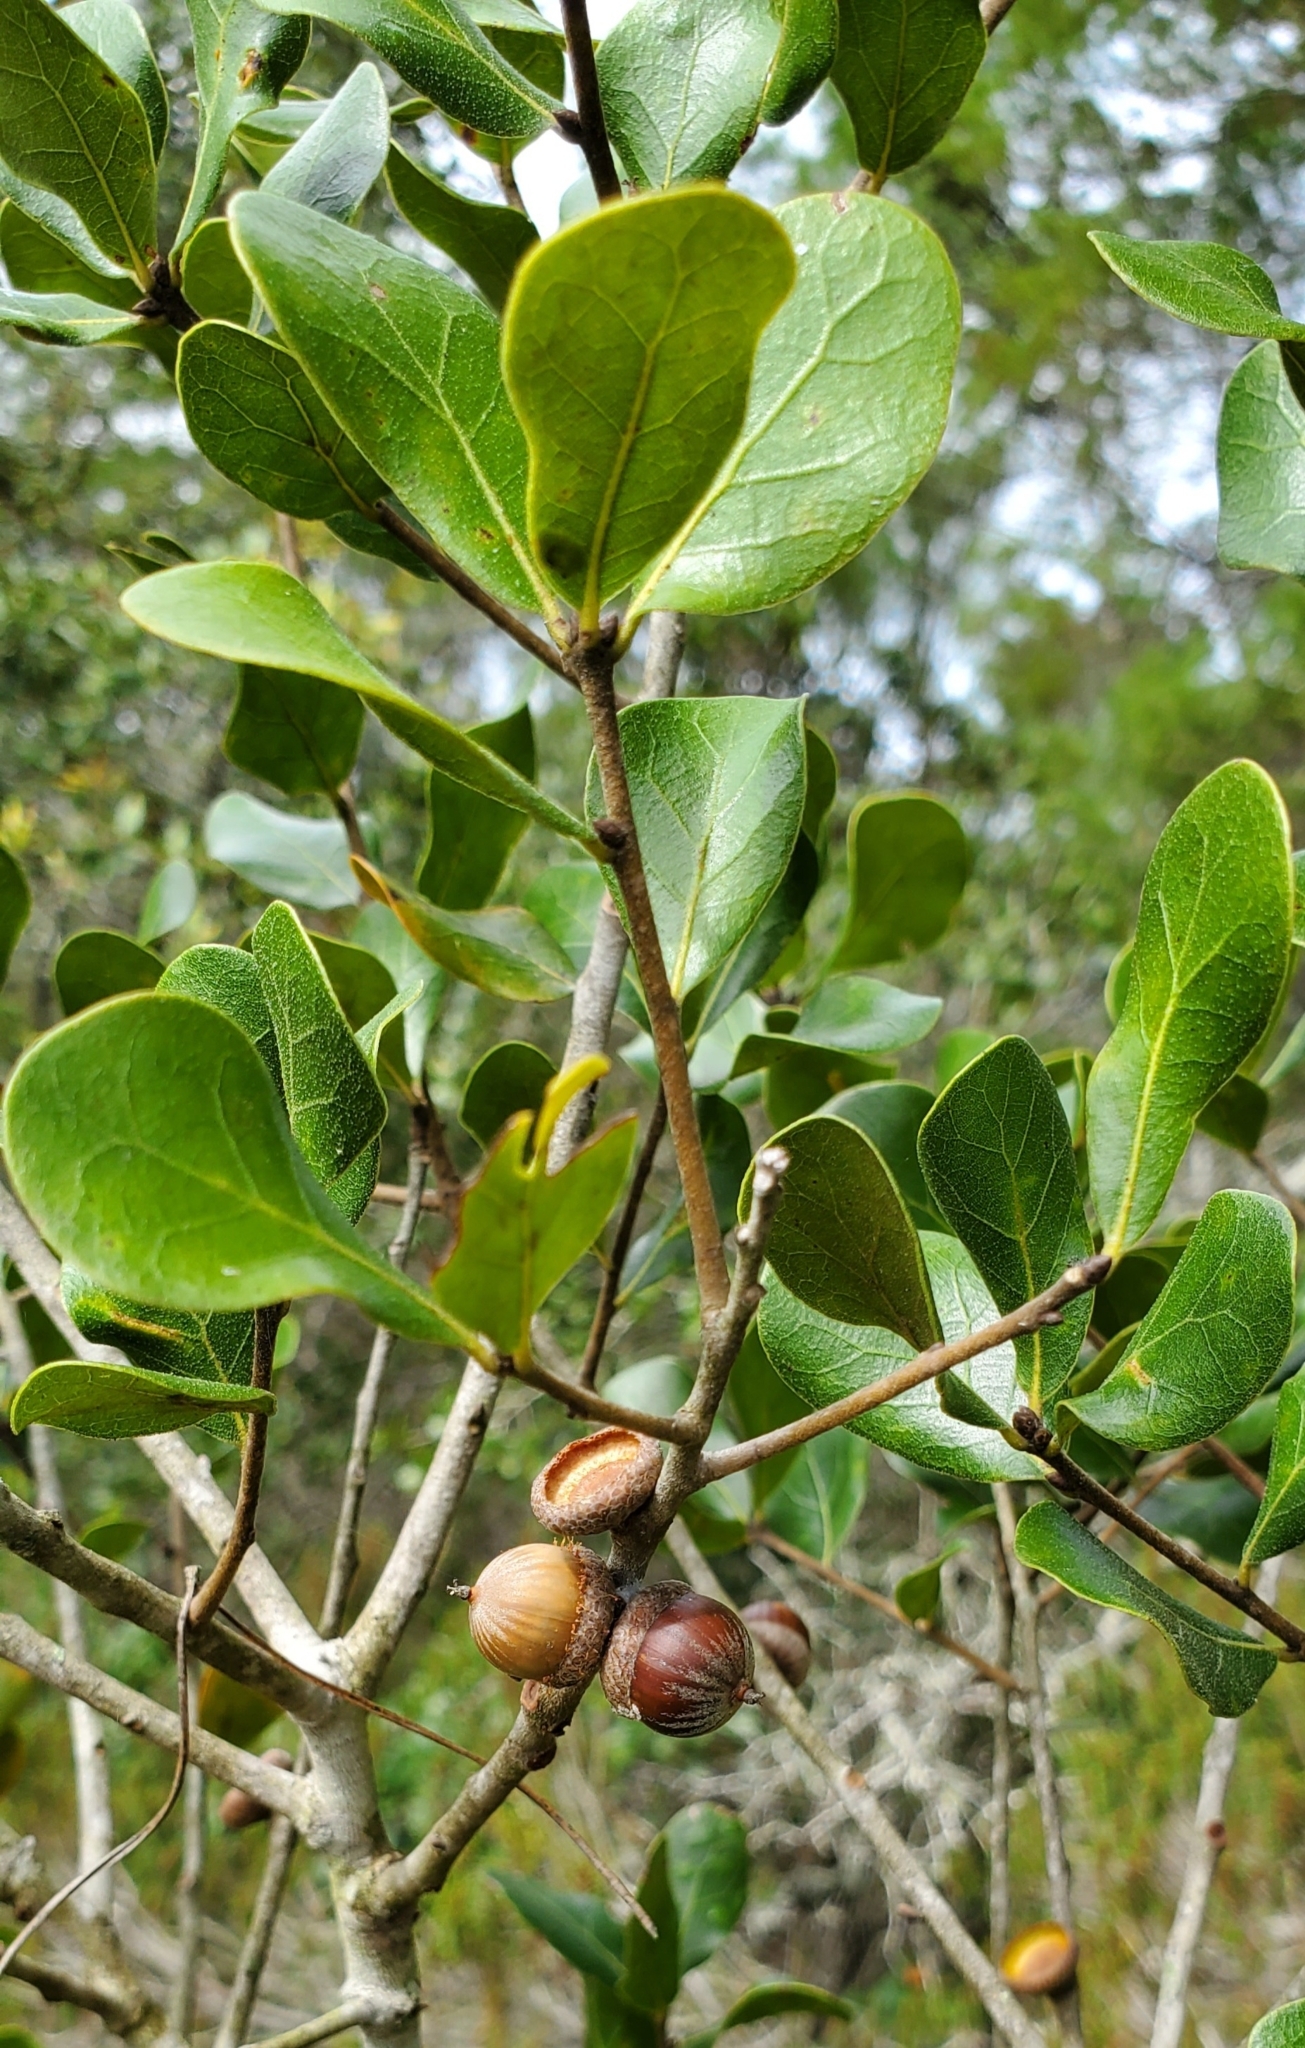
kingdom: Plantae
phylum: Tracheophyta
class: Magnoliopsida
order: Fagales
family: Fagaceae
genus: Quercus
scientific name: Quercus myrtifolia
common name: Myrtle oak
